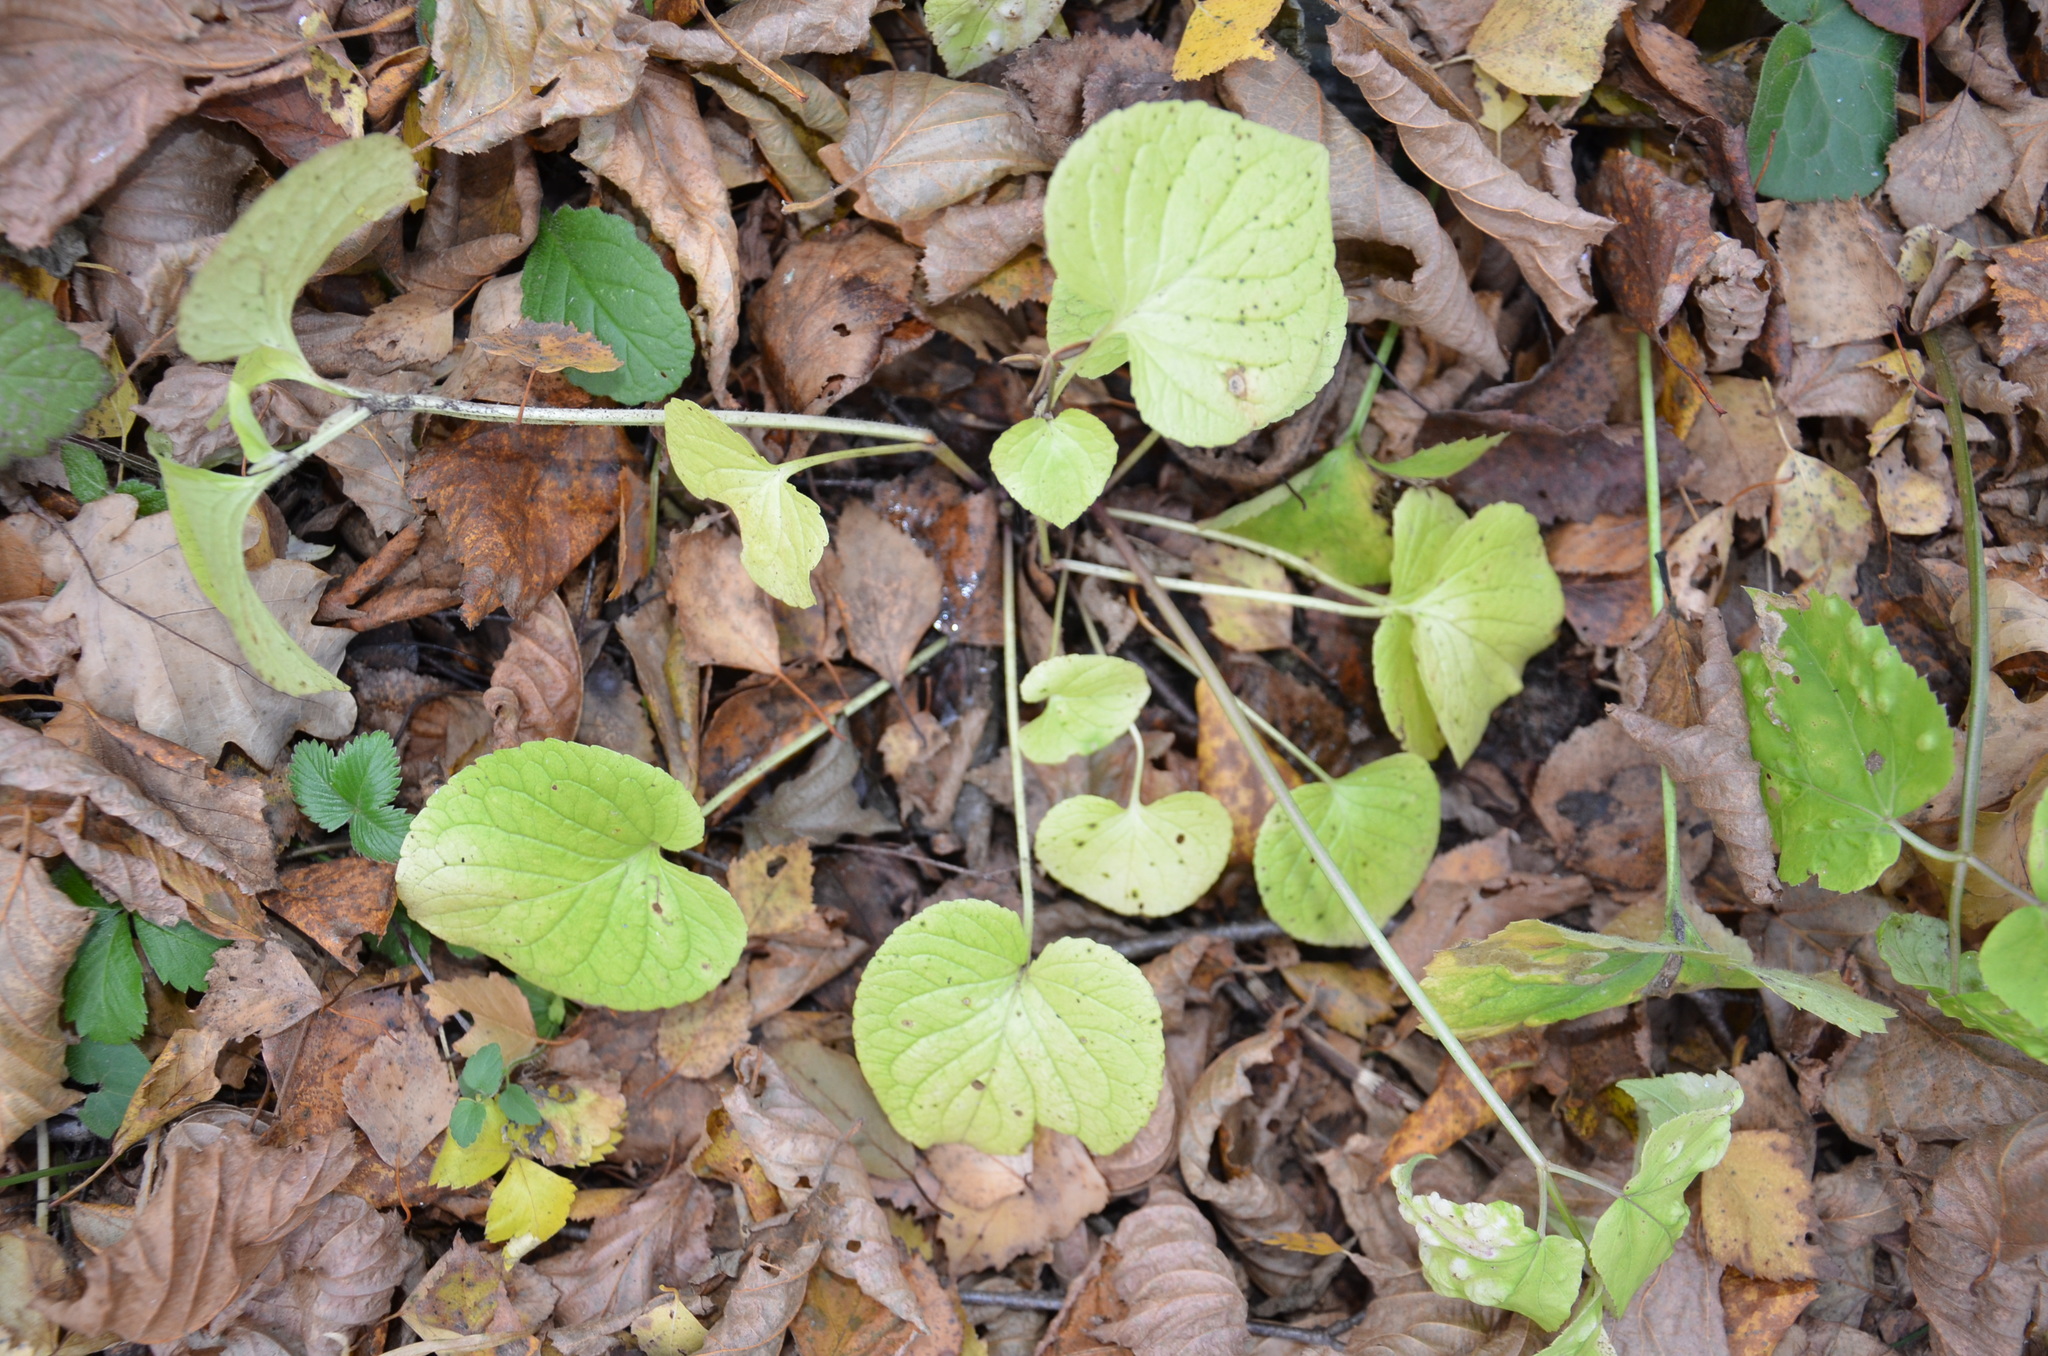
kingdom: Plantae
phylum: Tracheophyta
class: Magnoliopsida
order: Malpighiales
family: Violaceae
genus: Viola
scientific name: Viola mirabilis
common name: Wonder violet
